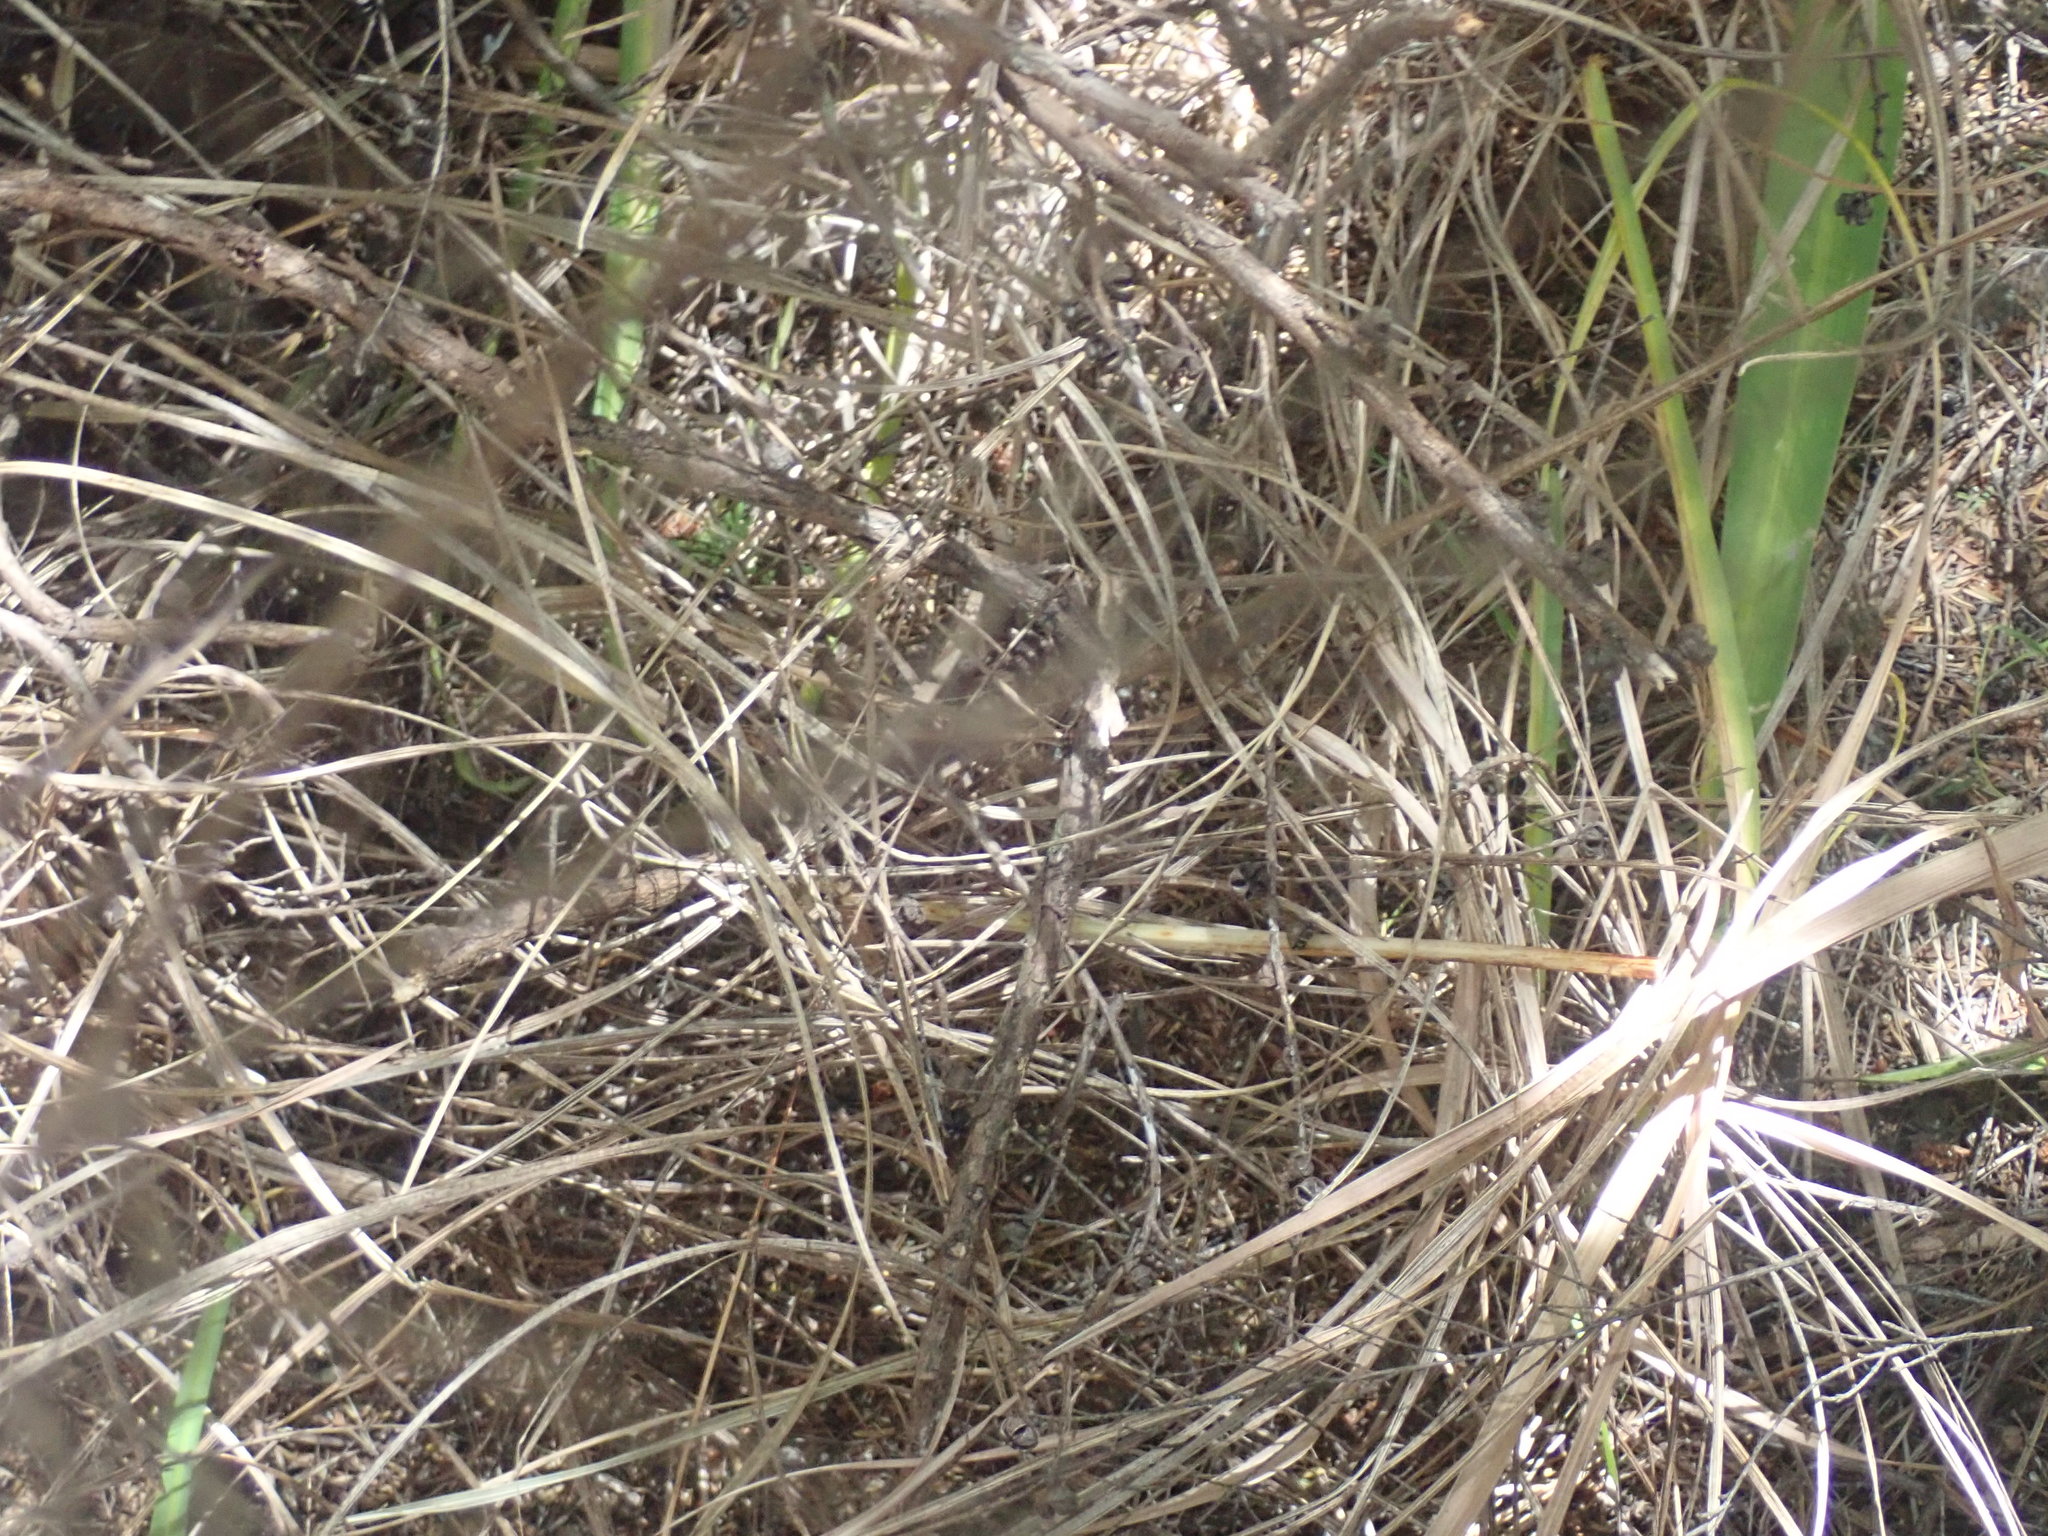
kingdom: Plantae
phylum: Tracheophyta
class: Pinopsida
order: Pinales
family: Phyllocladaceae
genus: Phyllocladus
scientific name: Phyllocladus trichomanoides
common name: Celery pine
